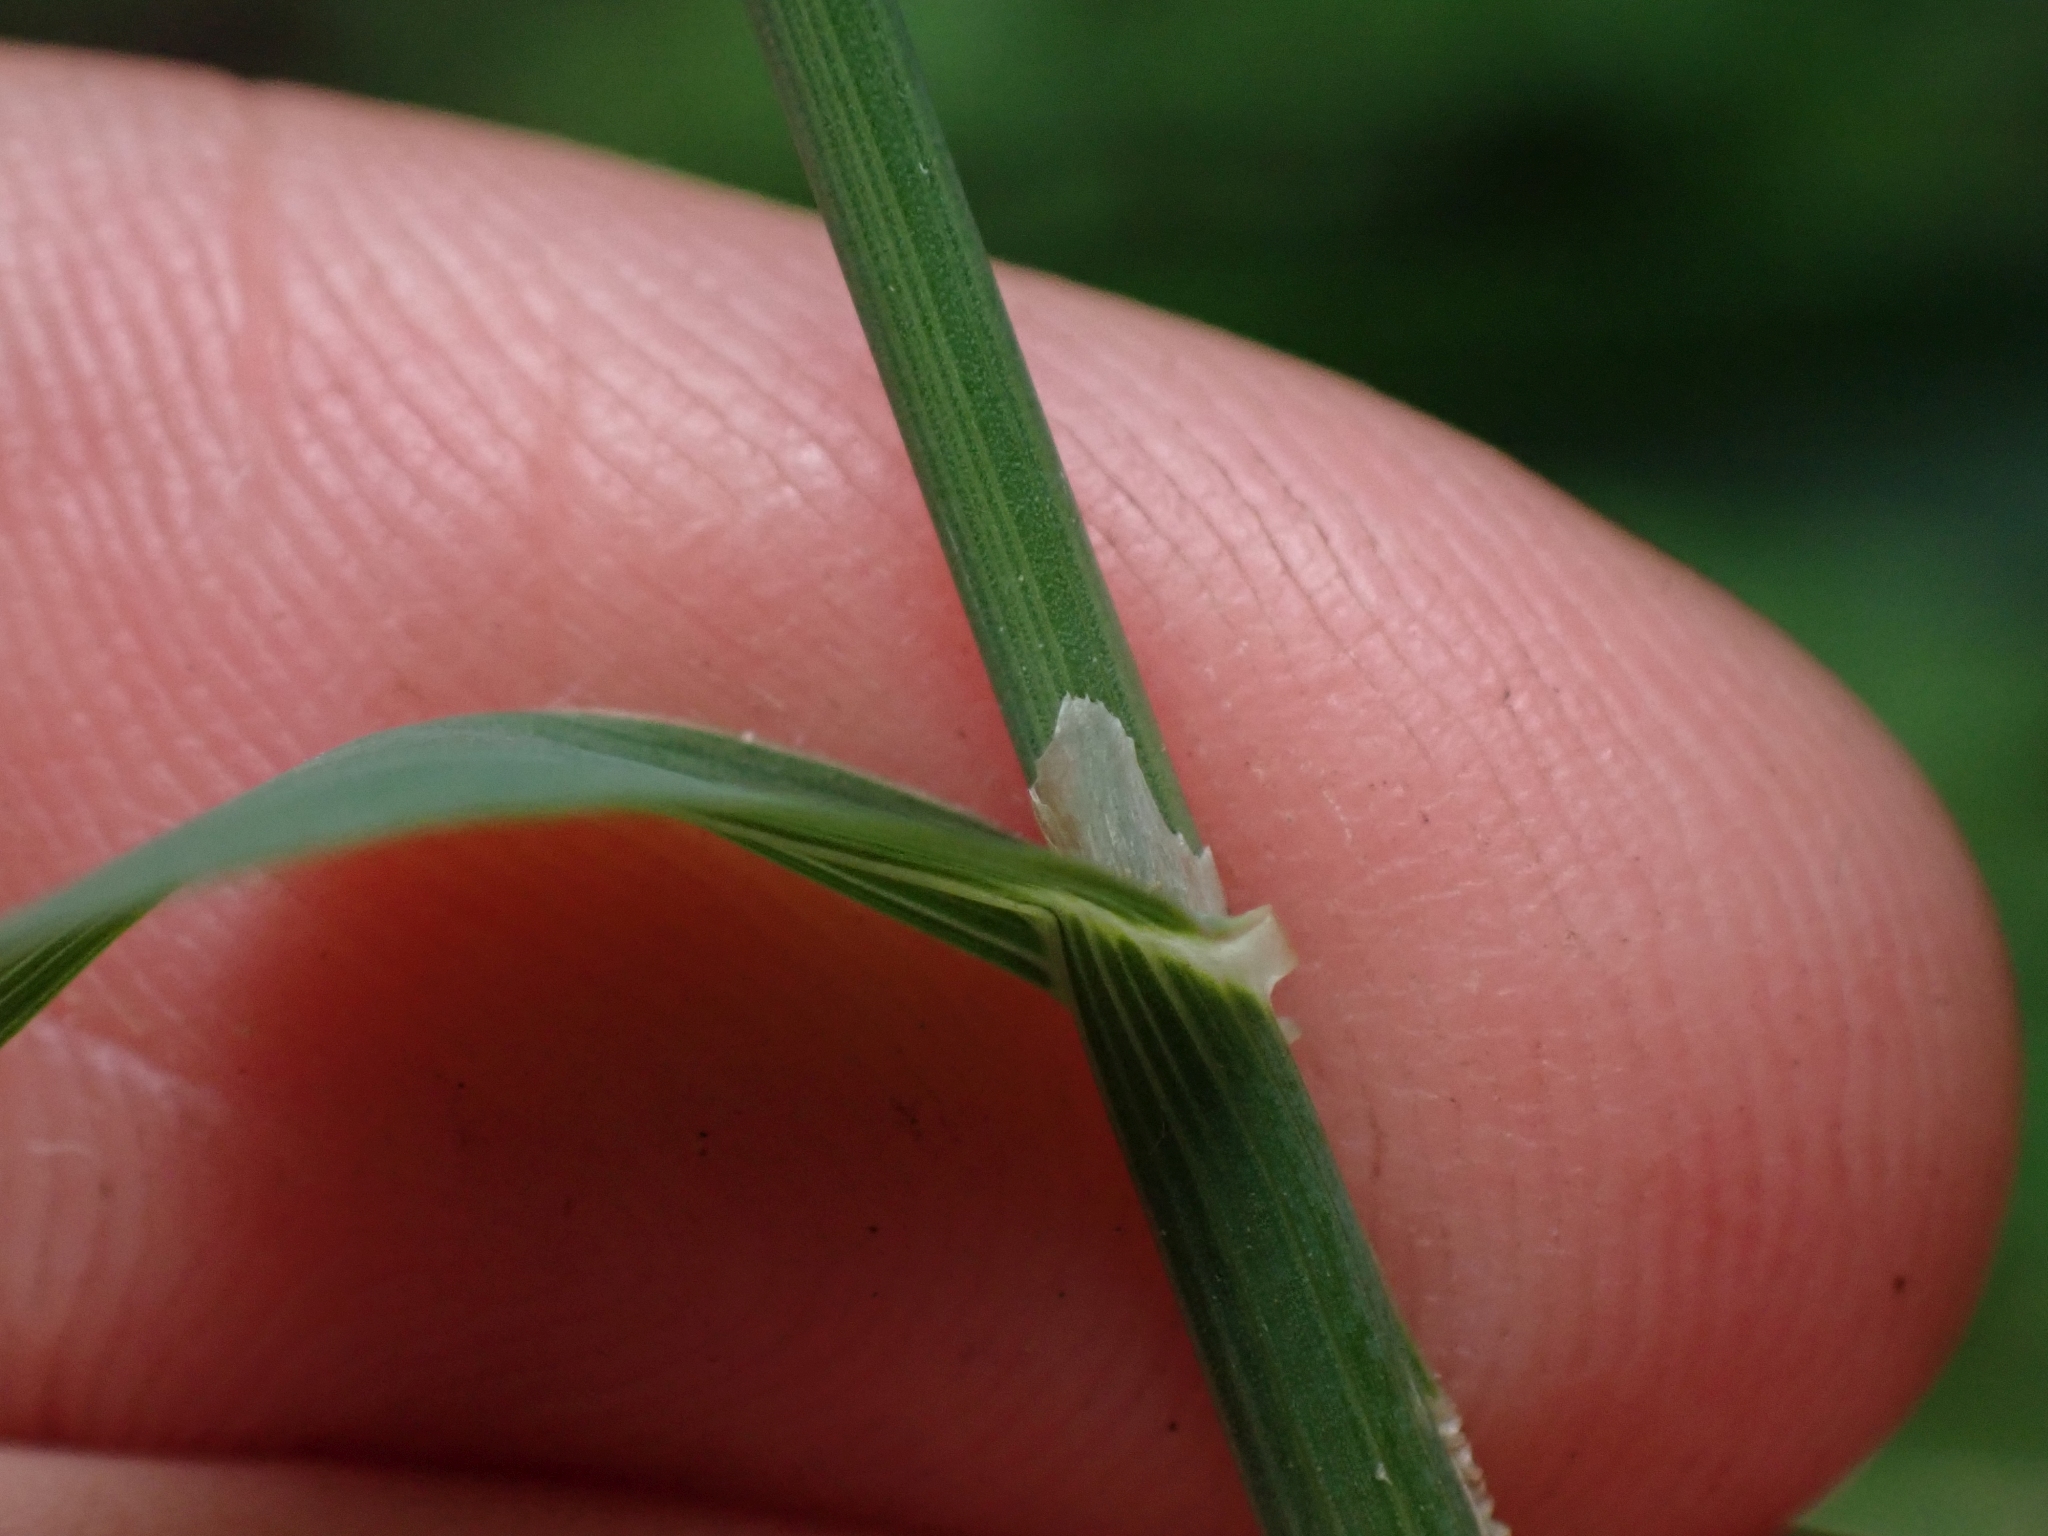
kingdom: Plantae
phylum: Tracheophyta
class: Liliopsida
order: Poales
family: Poaceae
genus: Phleum
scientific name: Phleum pratense
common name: Timothy grass
